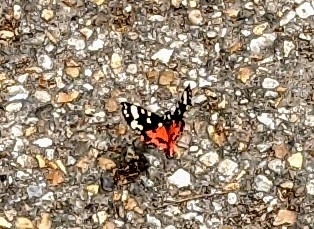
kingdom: Animalia
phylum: Arthropoda
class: Insecta
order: Lepidoptera
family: Erebidae
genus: Callimorpha
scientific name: Callimorpha dominula
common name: Scarlet tiger
